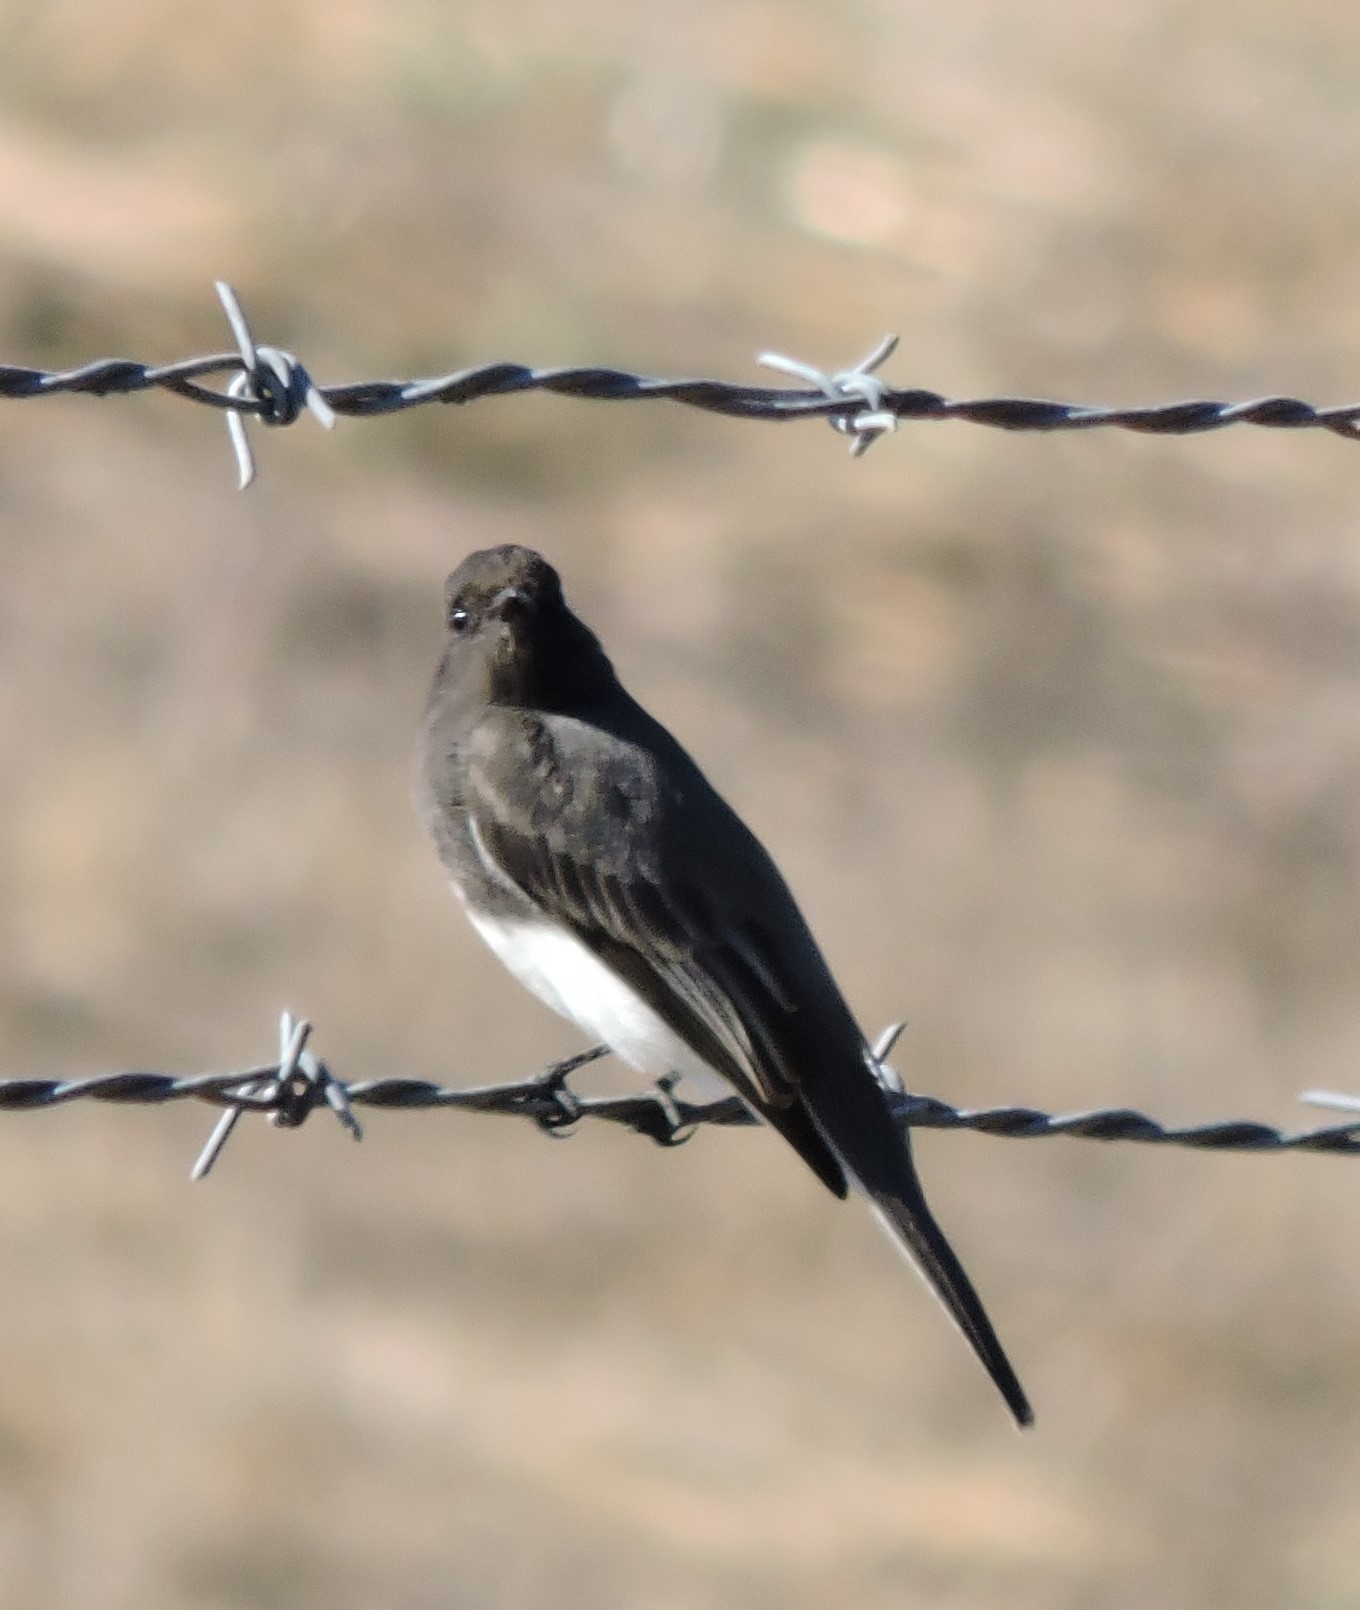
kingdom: Animalia
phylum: Chordata
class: Aves
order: Passeriformes
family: Tyrannidae
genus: Sayornis
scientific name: Sayornis nigricans
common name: Black phoebe
